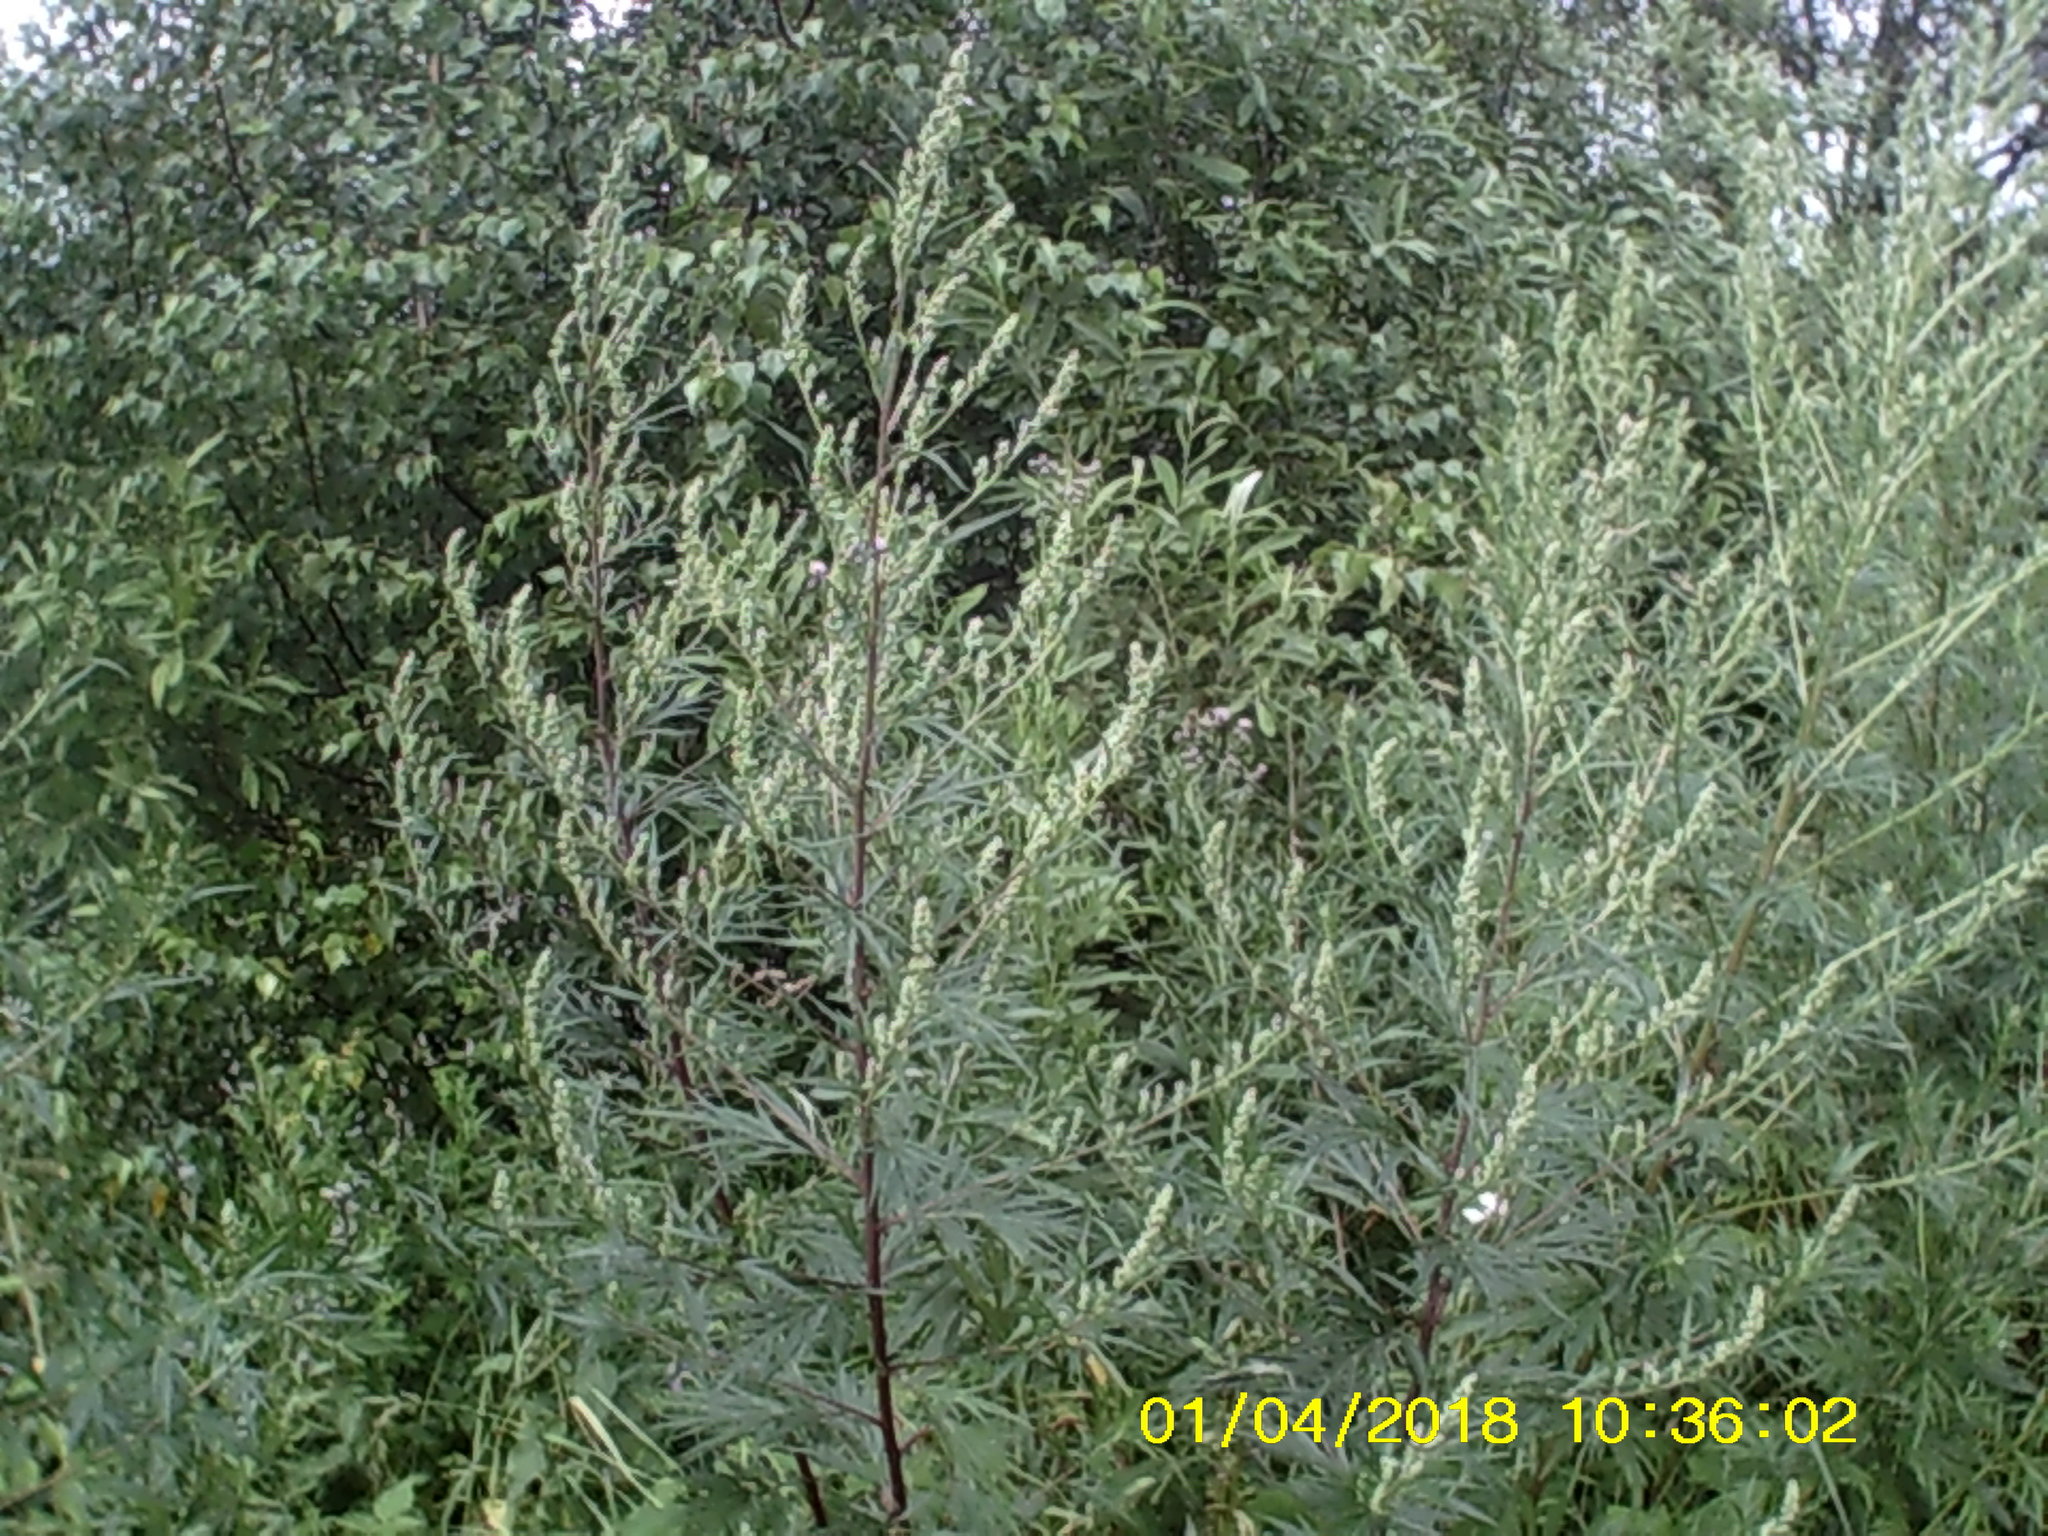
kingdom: Plantae
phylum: Tracheophyta
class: Magnoliopsida
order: Asterales
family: Asteraceae
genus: Artemisia
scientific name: Artemisia vulgaris
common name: Mugwort
